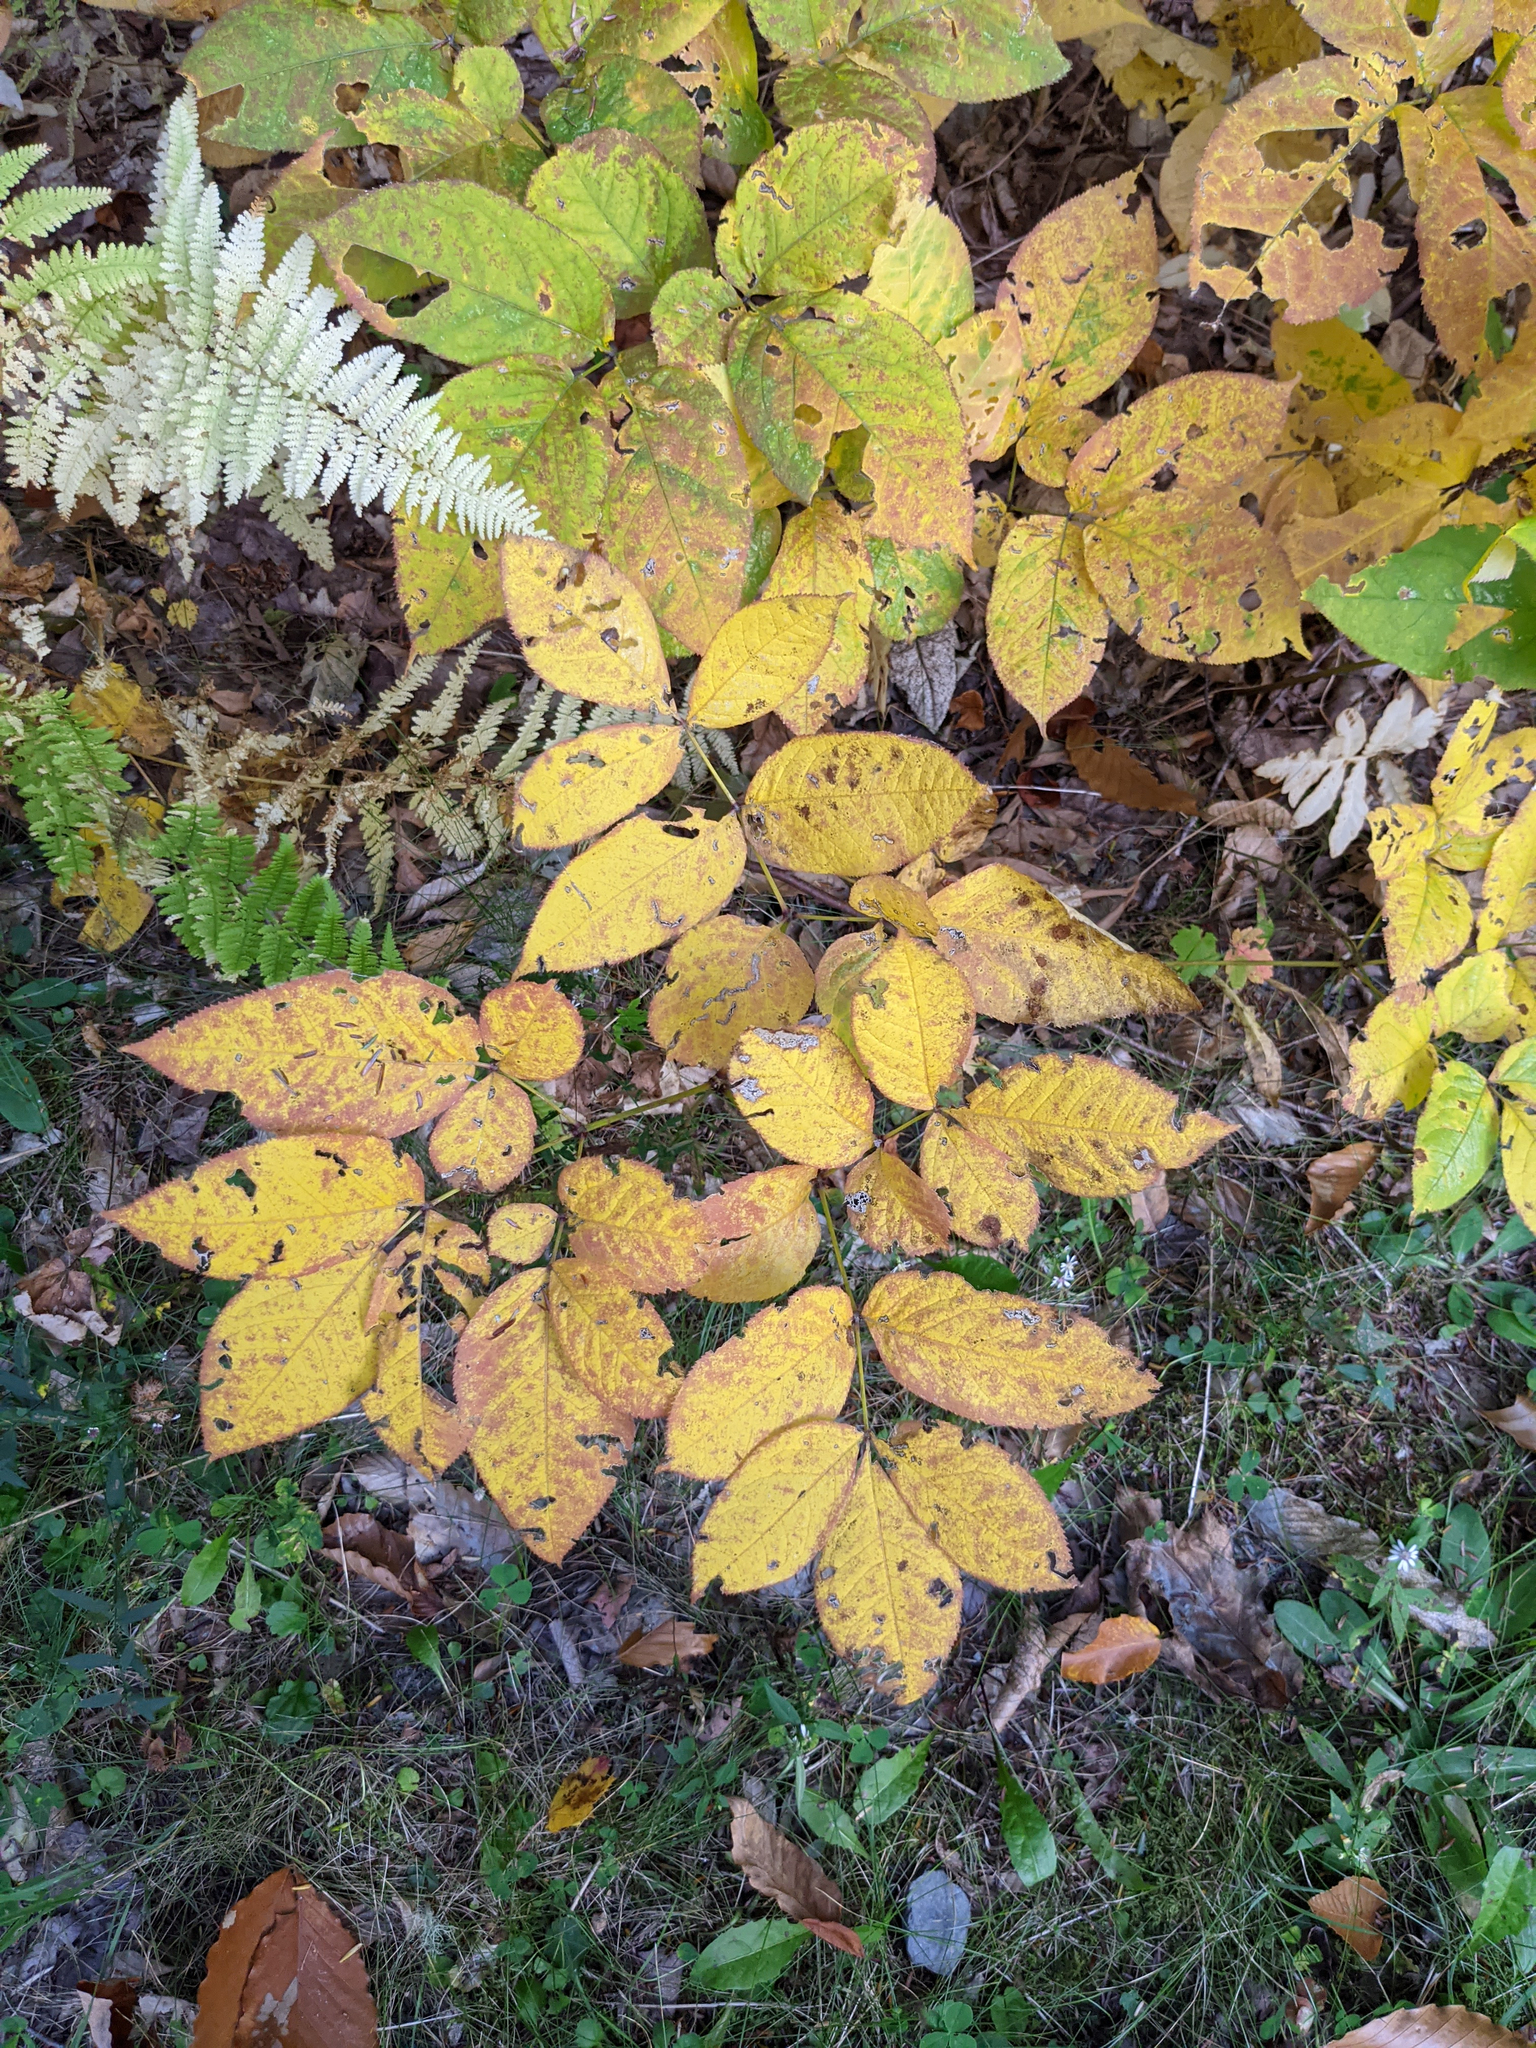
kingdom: Plantae
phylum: Tracheophyta
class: Magnoliopsida
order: Apiales
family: Araliaceae
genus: Aralia
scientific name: Aralia nudicaulis
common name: Wild sarsaparilla
